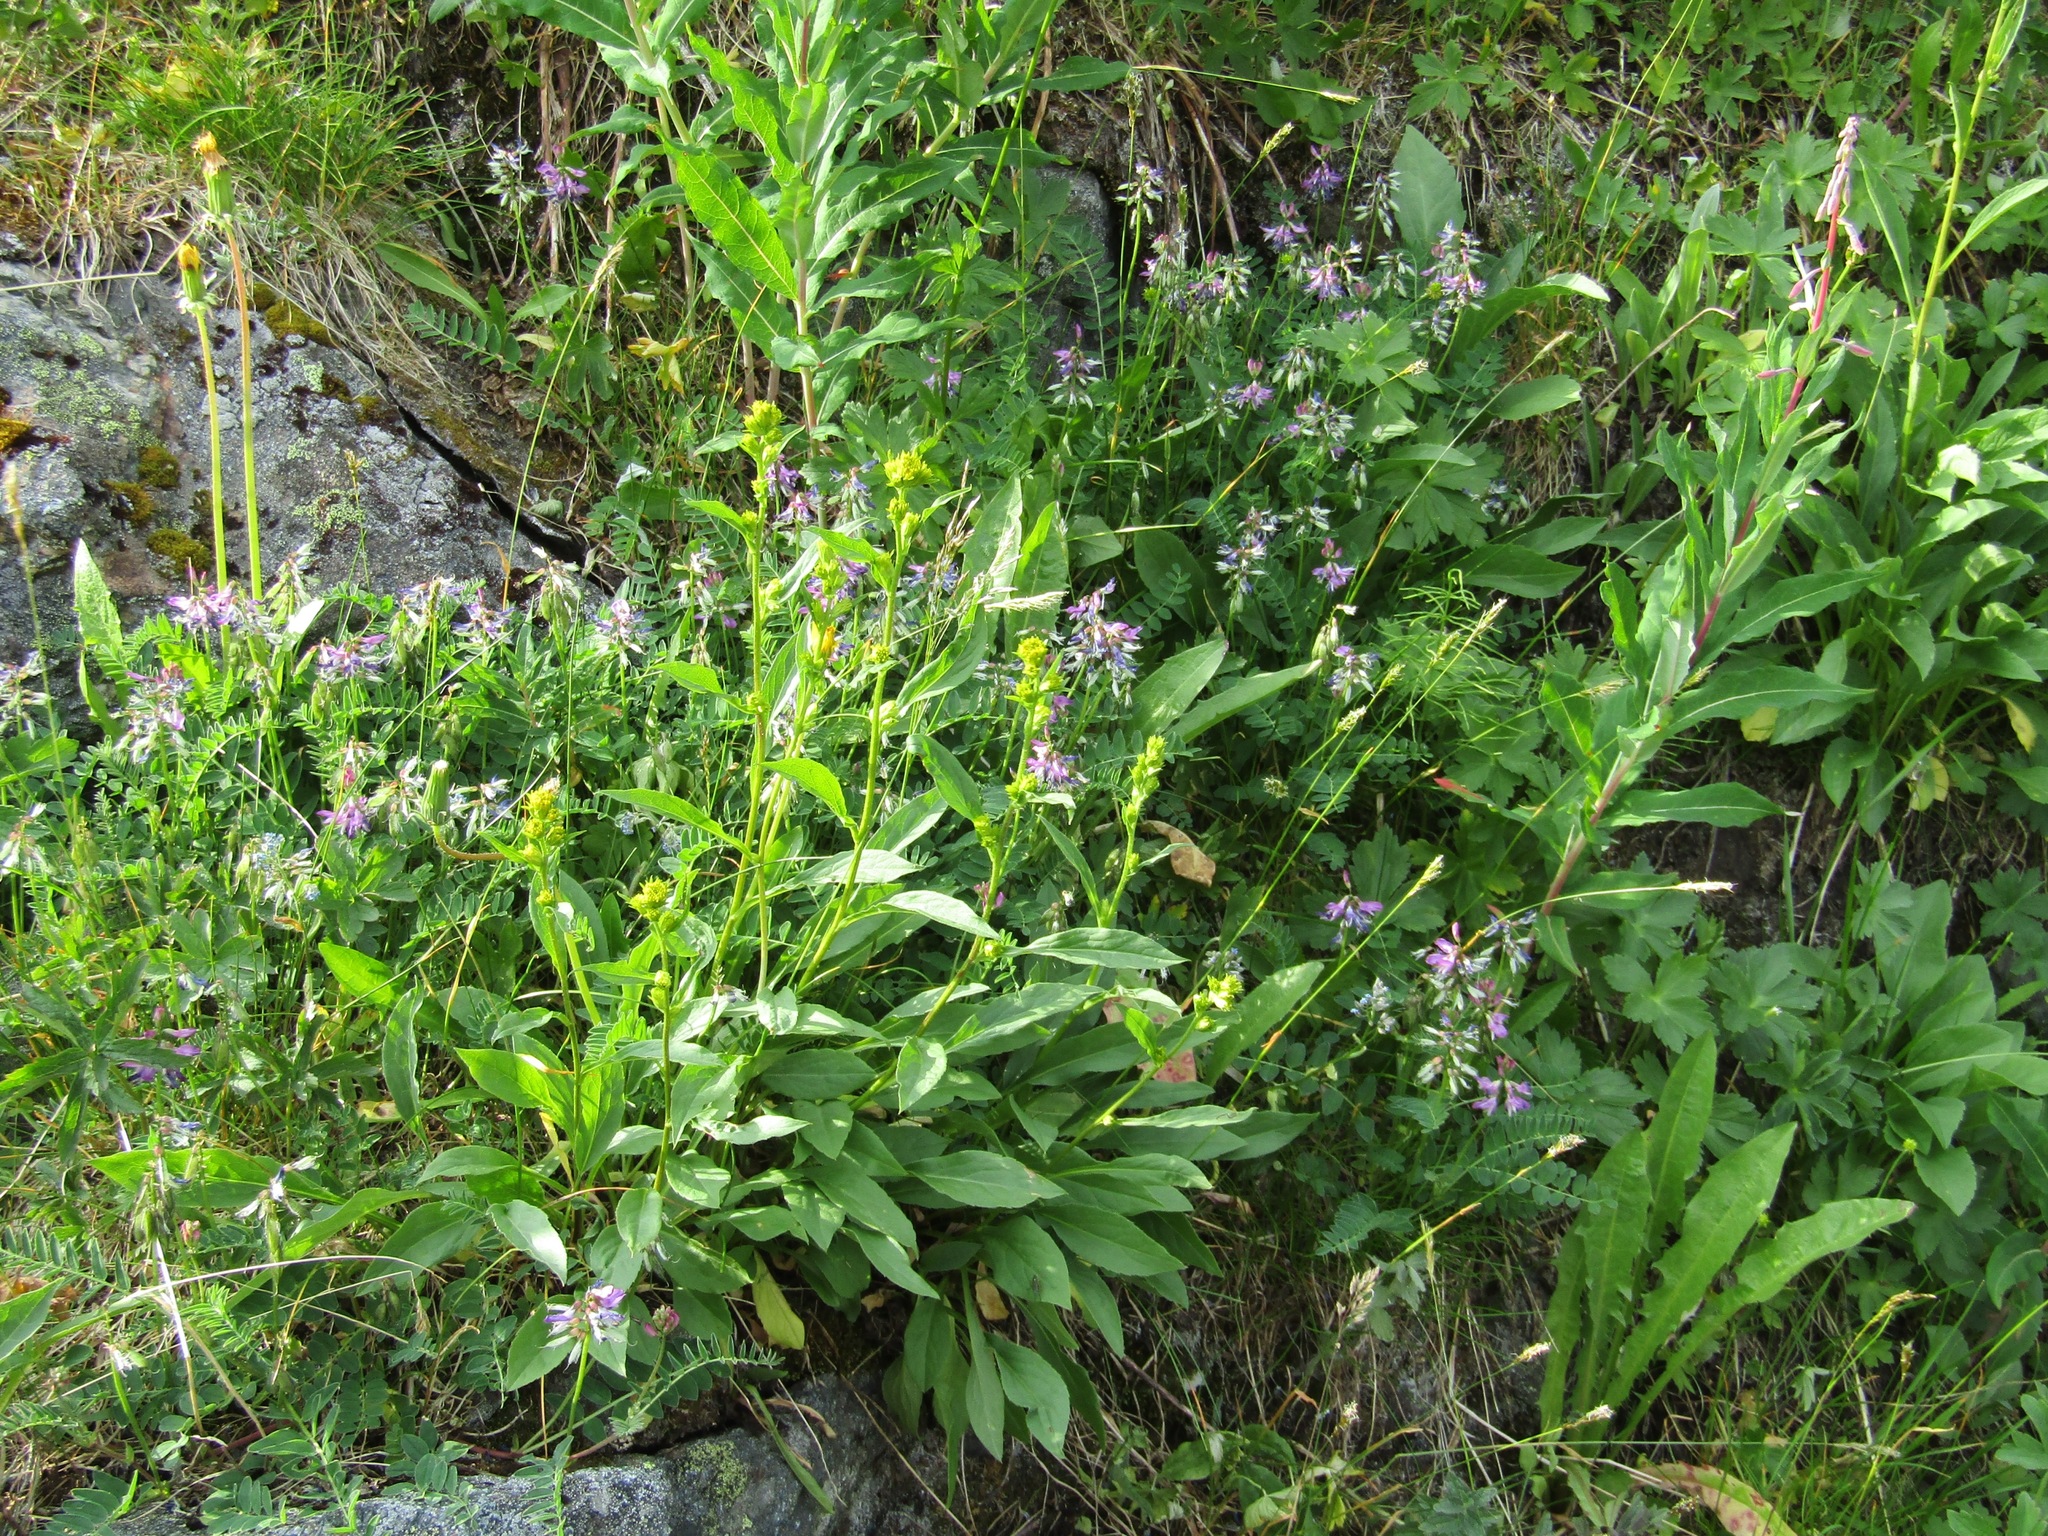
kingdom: Plantae
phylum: Tracheophyta
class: Magnoliopsida
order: Fabales
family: Fabaceae
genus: Astragalus
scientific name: Astragalus alpinus
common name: Alpine milk-vetch
